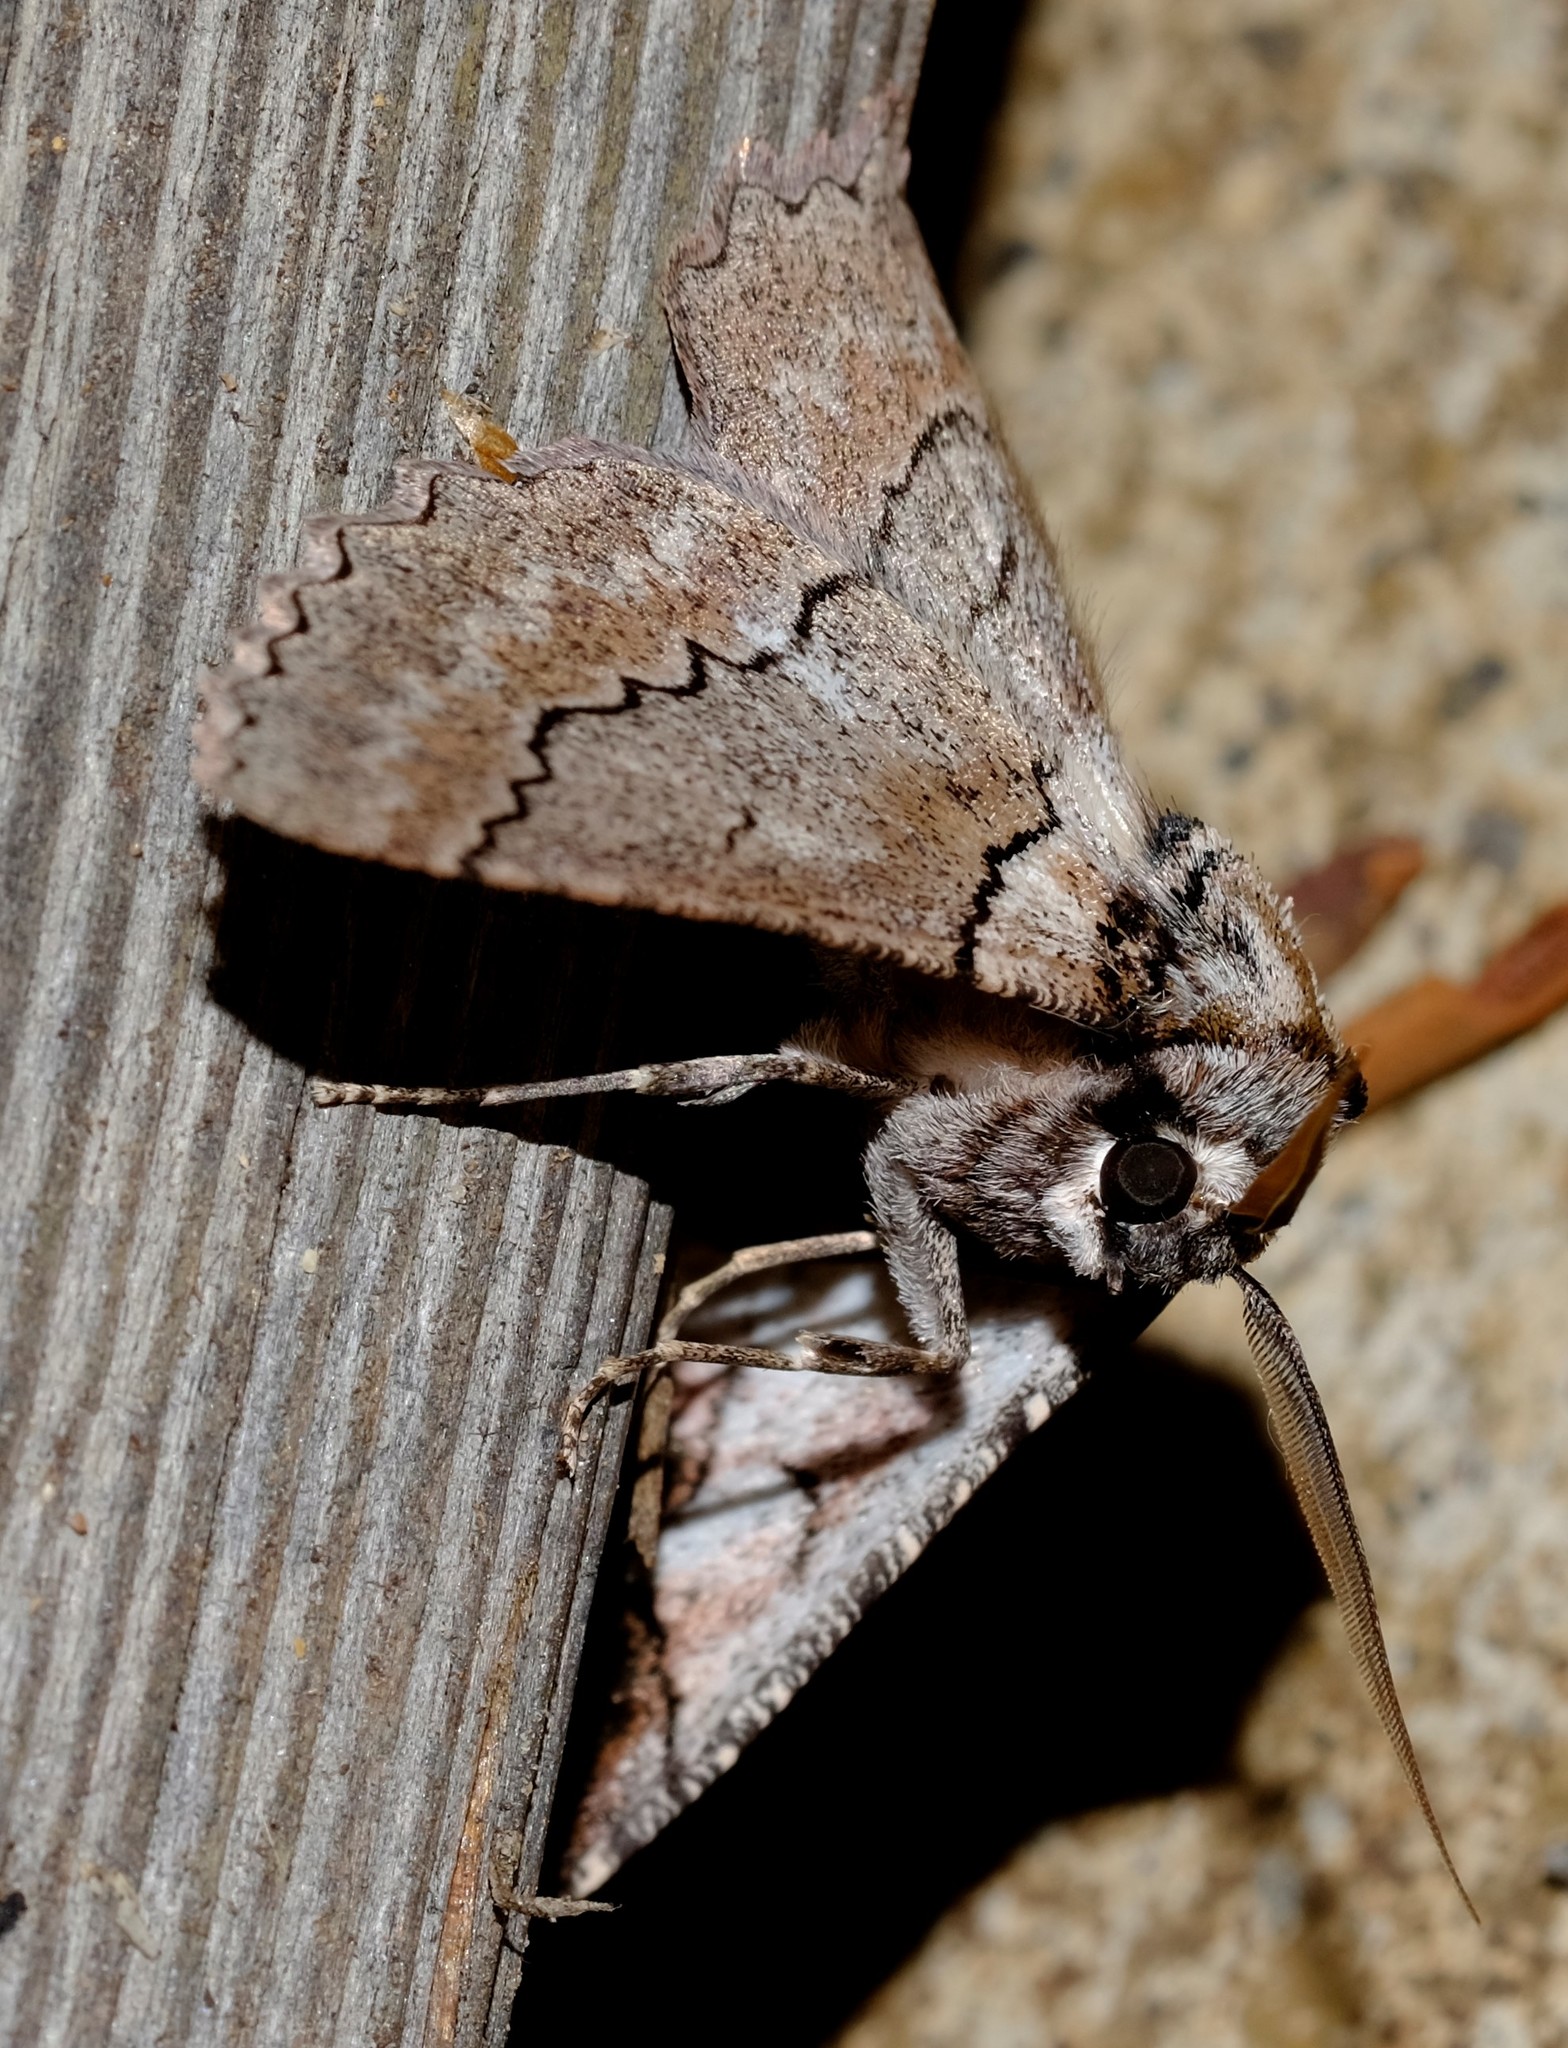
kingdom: Animalia
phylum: Arthropoda
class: Insecta
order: Lepidoptera
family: Geometridae
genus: Hypobapta
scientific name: Hypobapta tachyhalotaria
